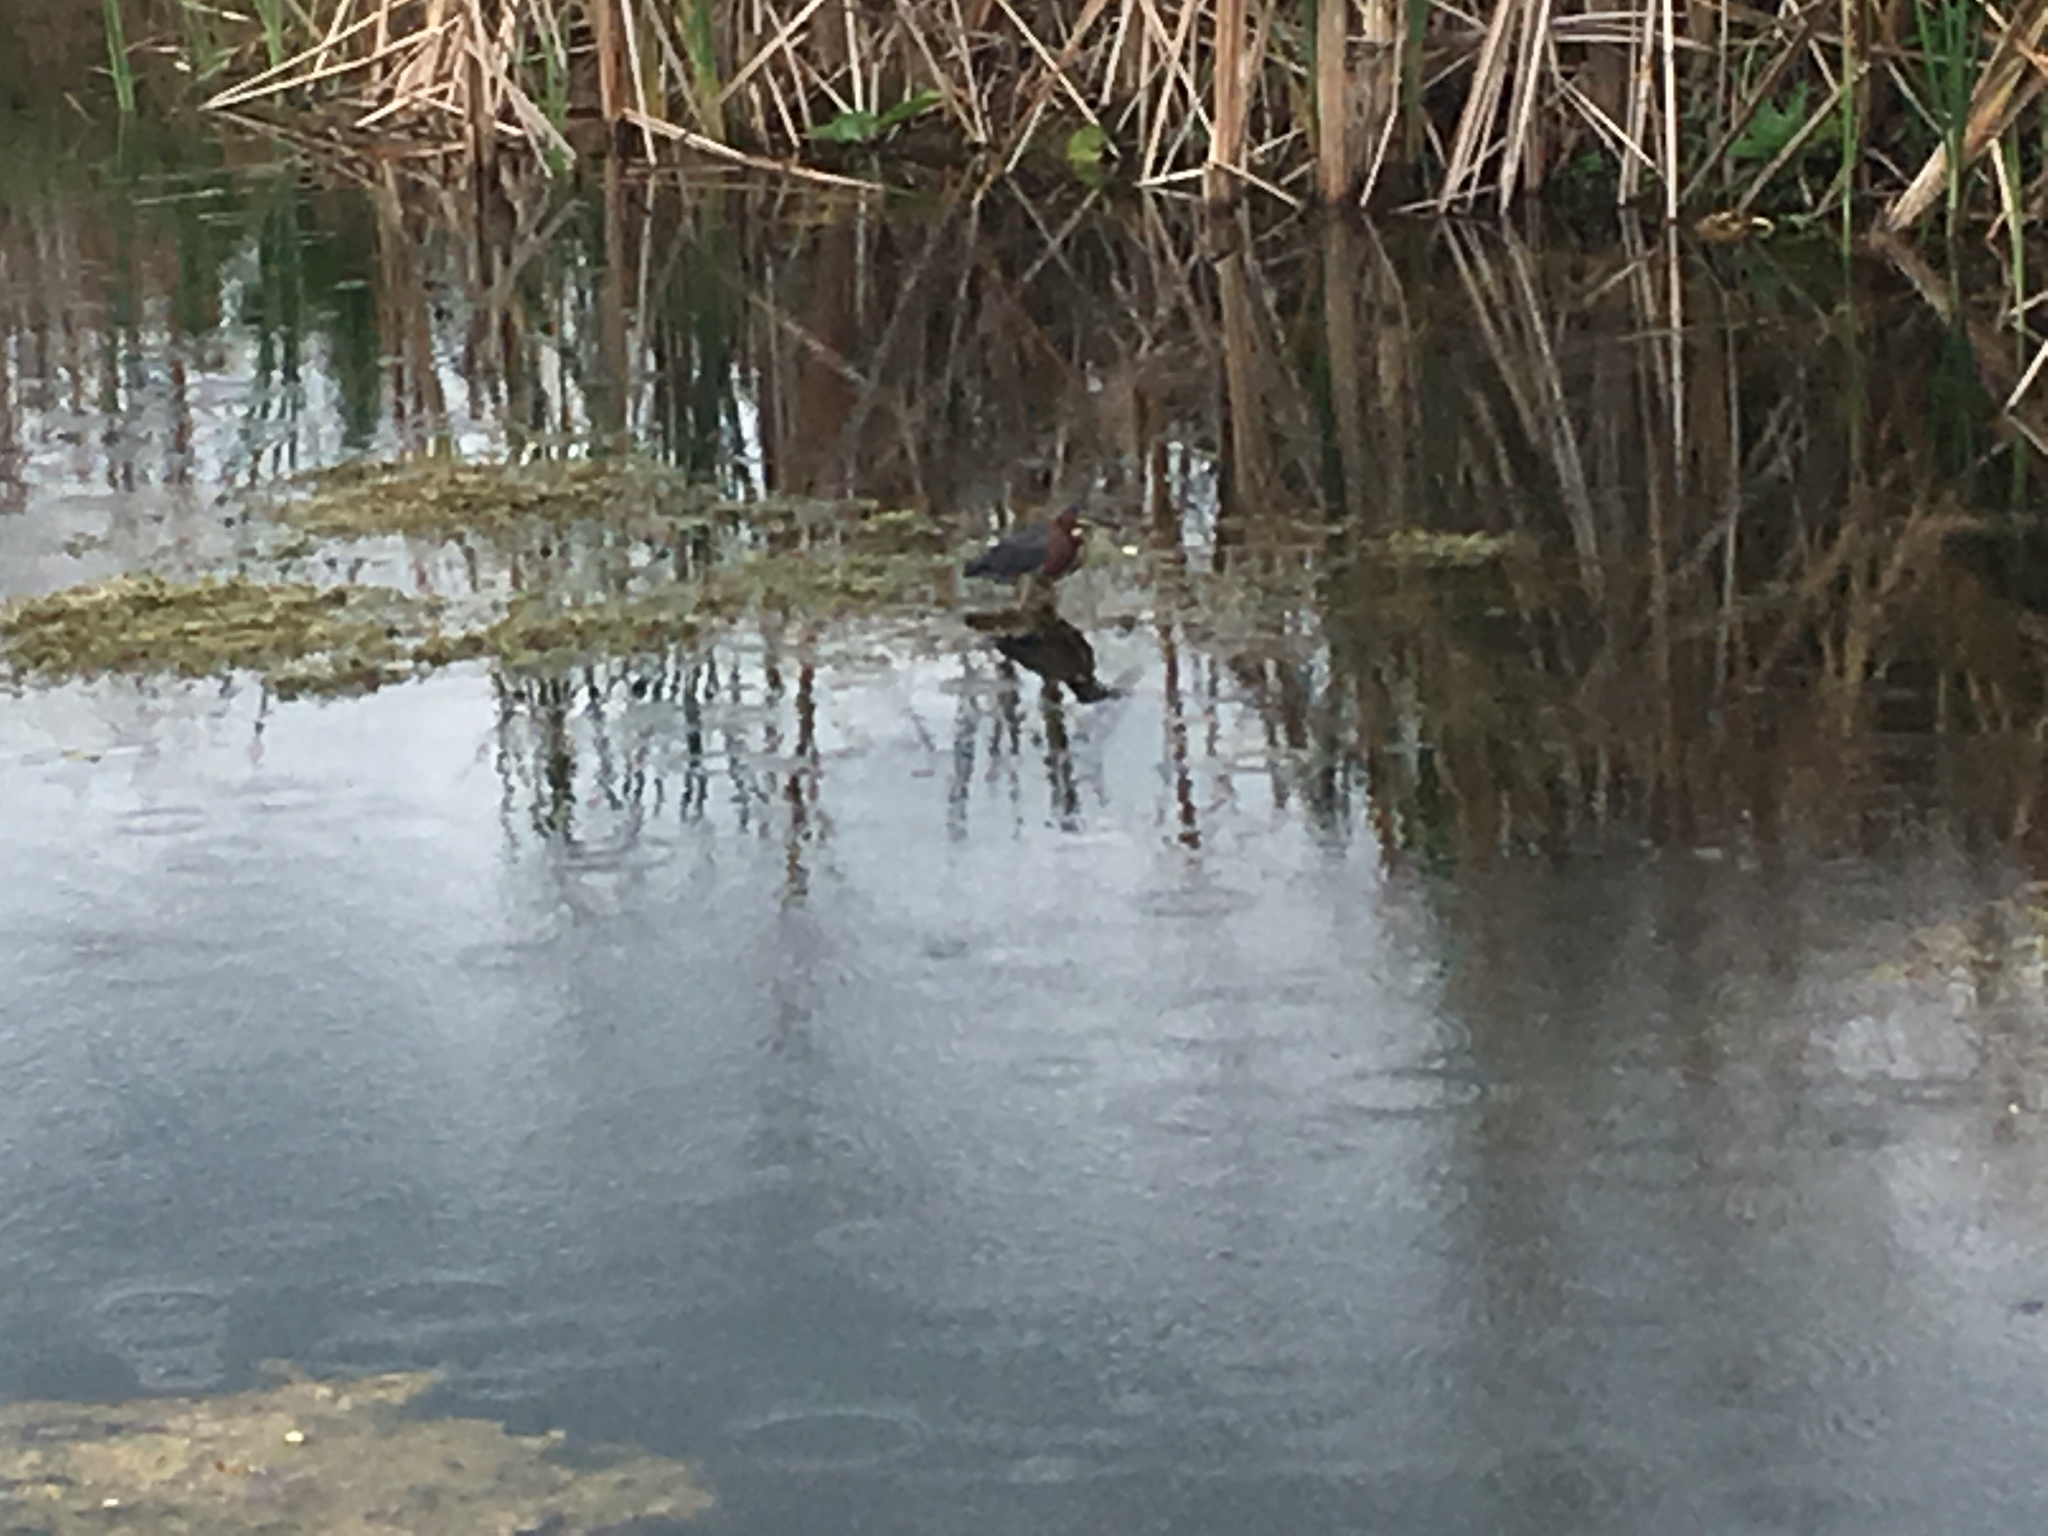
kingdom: Animalia
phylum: Chordata
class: Aves
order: Pelecaniformes
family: Ardeidae
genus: Butorides
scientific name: Butorides virescens
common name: Green heron
